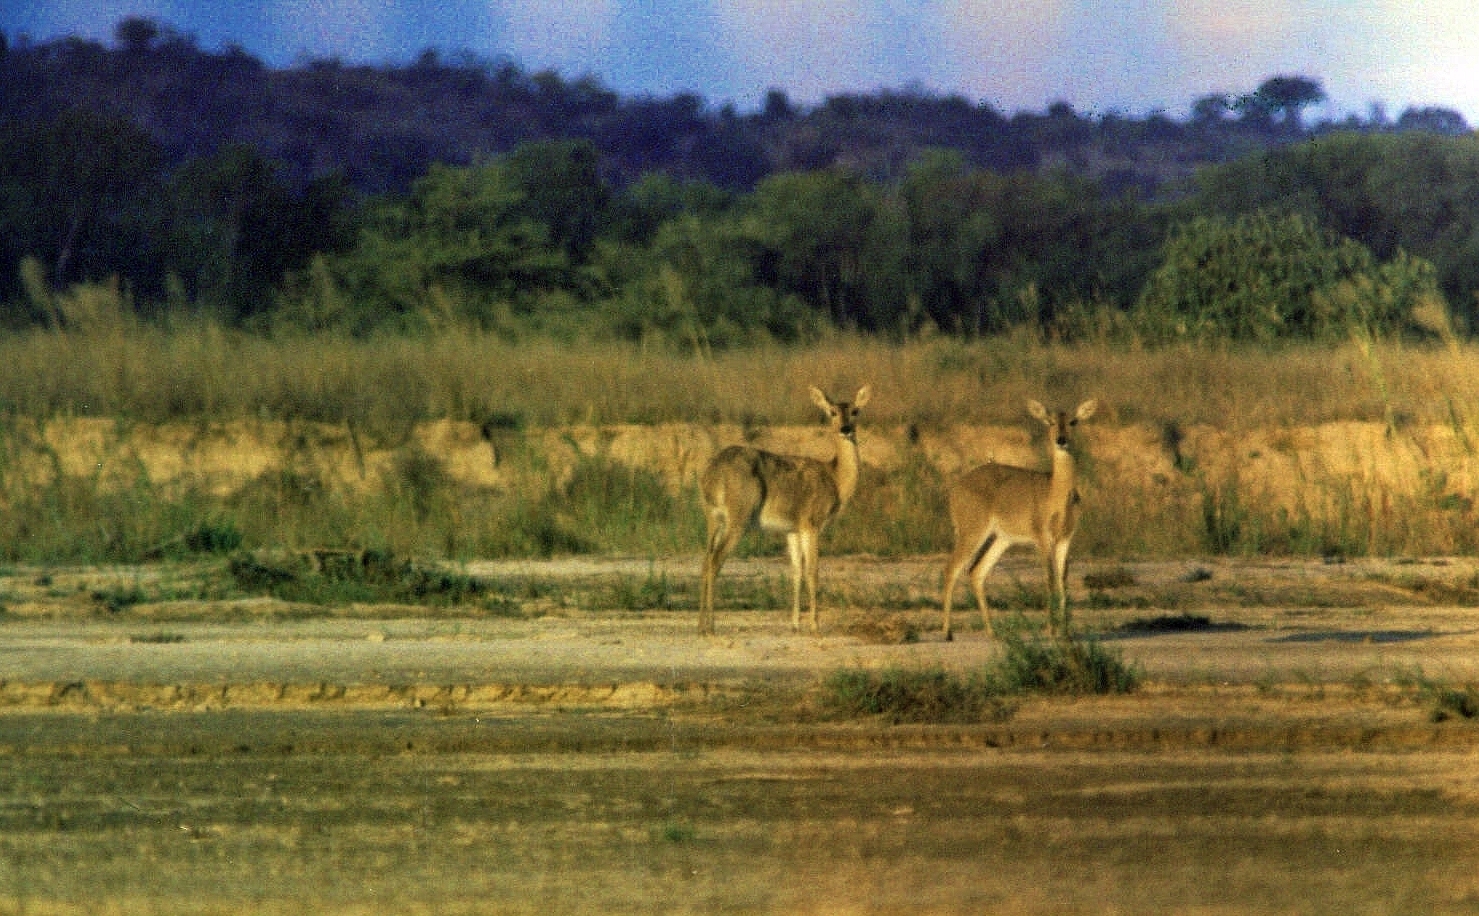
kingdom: Animalia
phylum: Chordata
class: Mammalia
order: Artiodactyla
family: Bovidae
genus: Redunca
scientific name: Redunca arundinum
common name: Southern reedbuck
